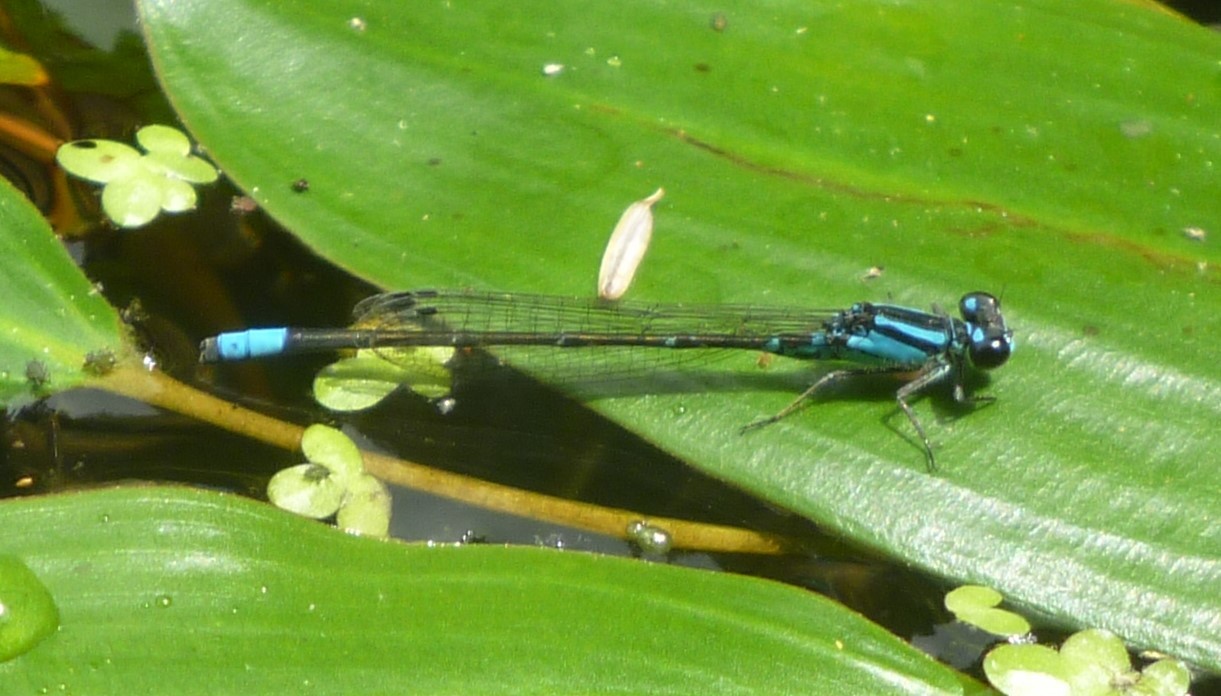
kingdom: Animalia
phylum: Arthropoda
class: Insecta
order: Odonata
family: Coenagrionidae
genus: Enallagma
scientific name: Enallagma geminatum
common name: Skimming bluet
